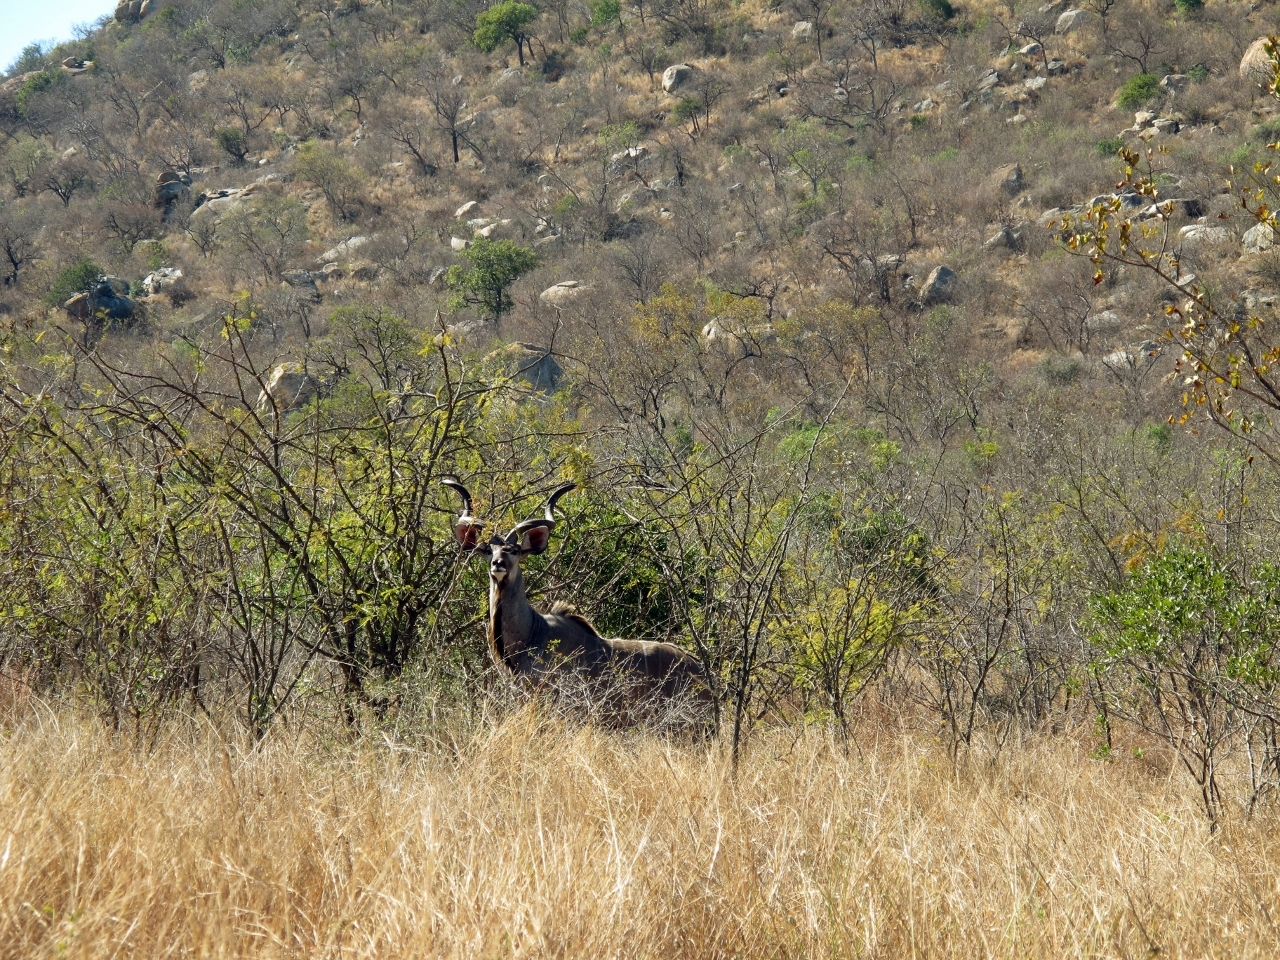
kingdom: Animalia
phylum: Chordata
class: Mammalia
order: Artiodactyla
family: Bovidae
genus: Tragelaphus
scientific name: Tragelaphus strepsiceros
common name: Greater kudu
